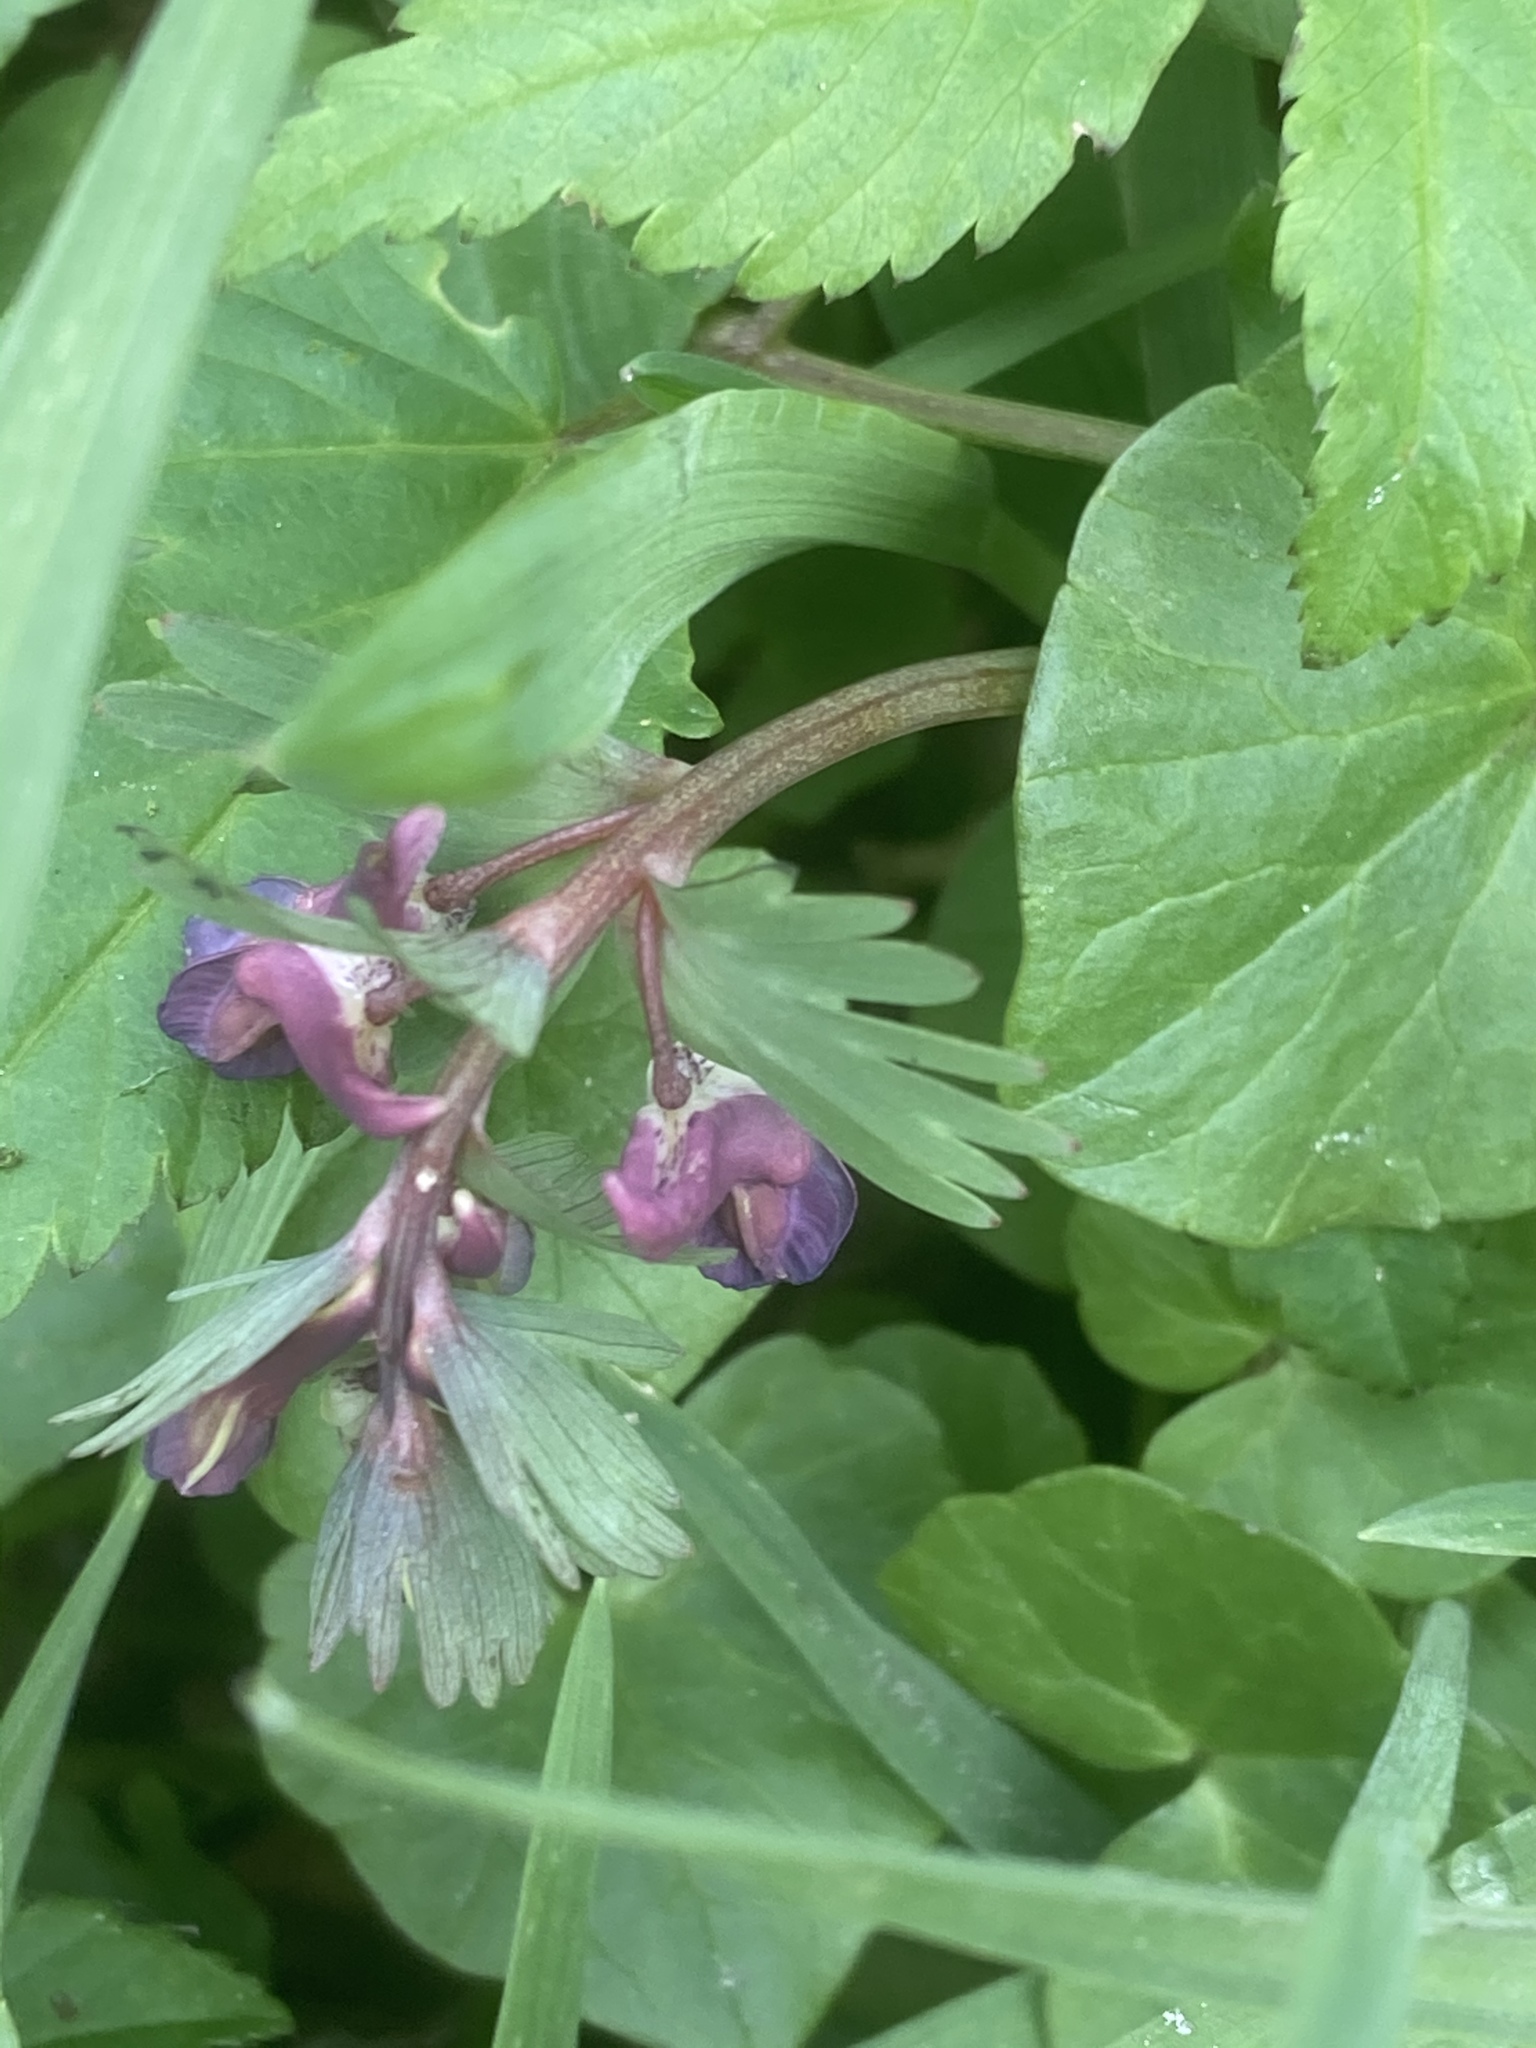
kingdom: Plantae
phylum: Tracheophyta
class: Magnoliopsida
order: Ranunculales
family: Papaveraceae
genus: Corydalis
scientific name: Corydalis solida
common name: Bird-in-a-bush
